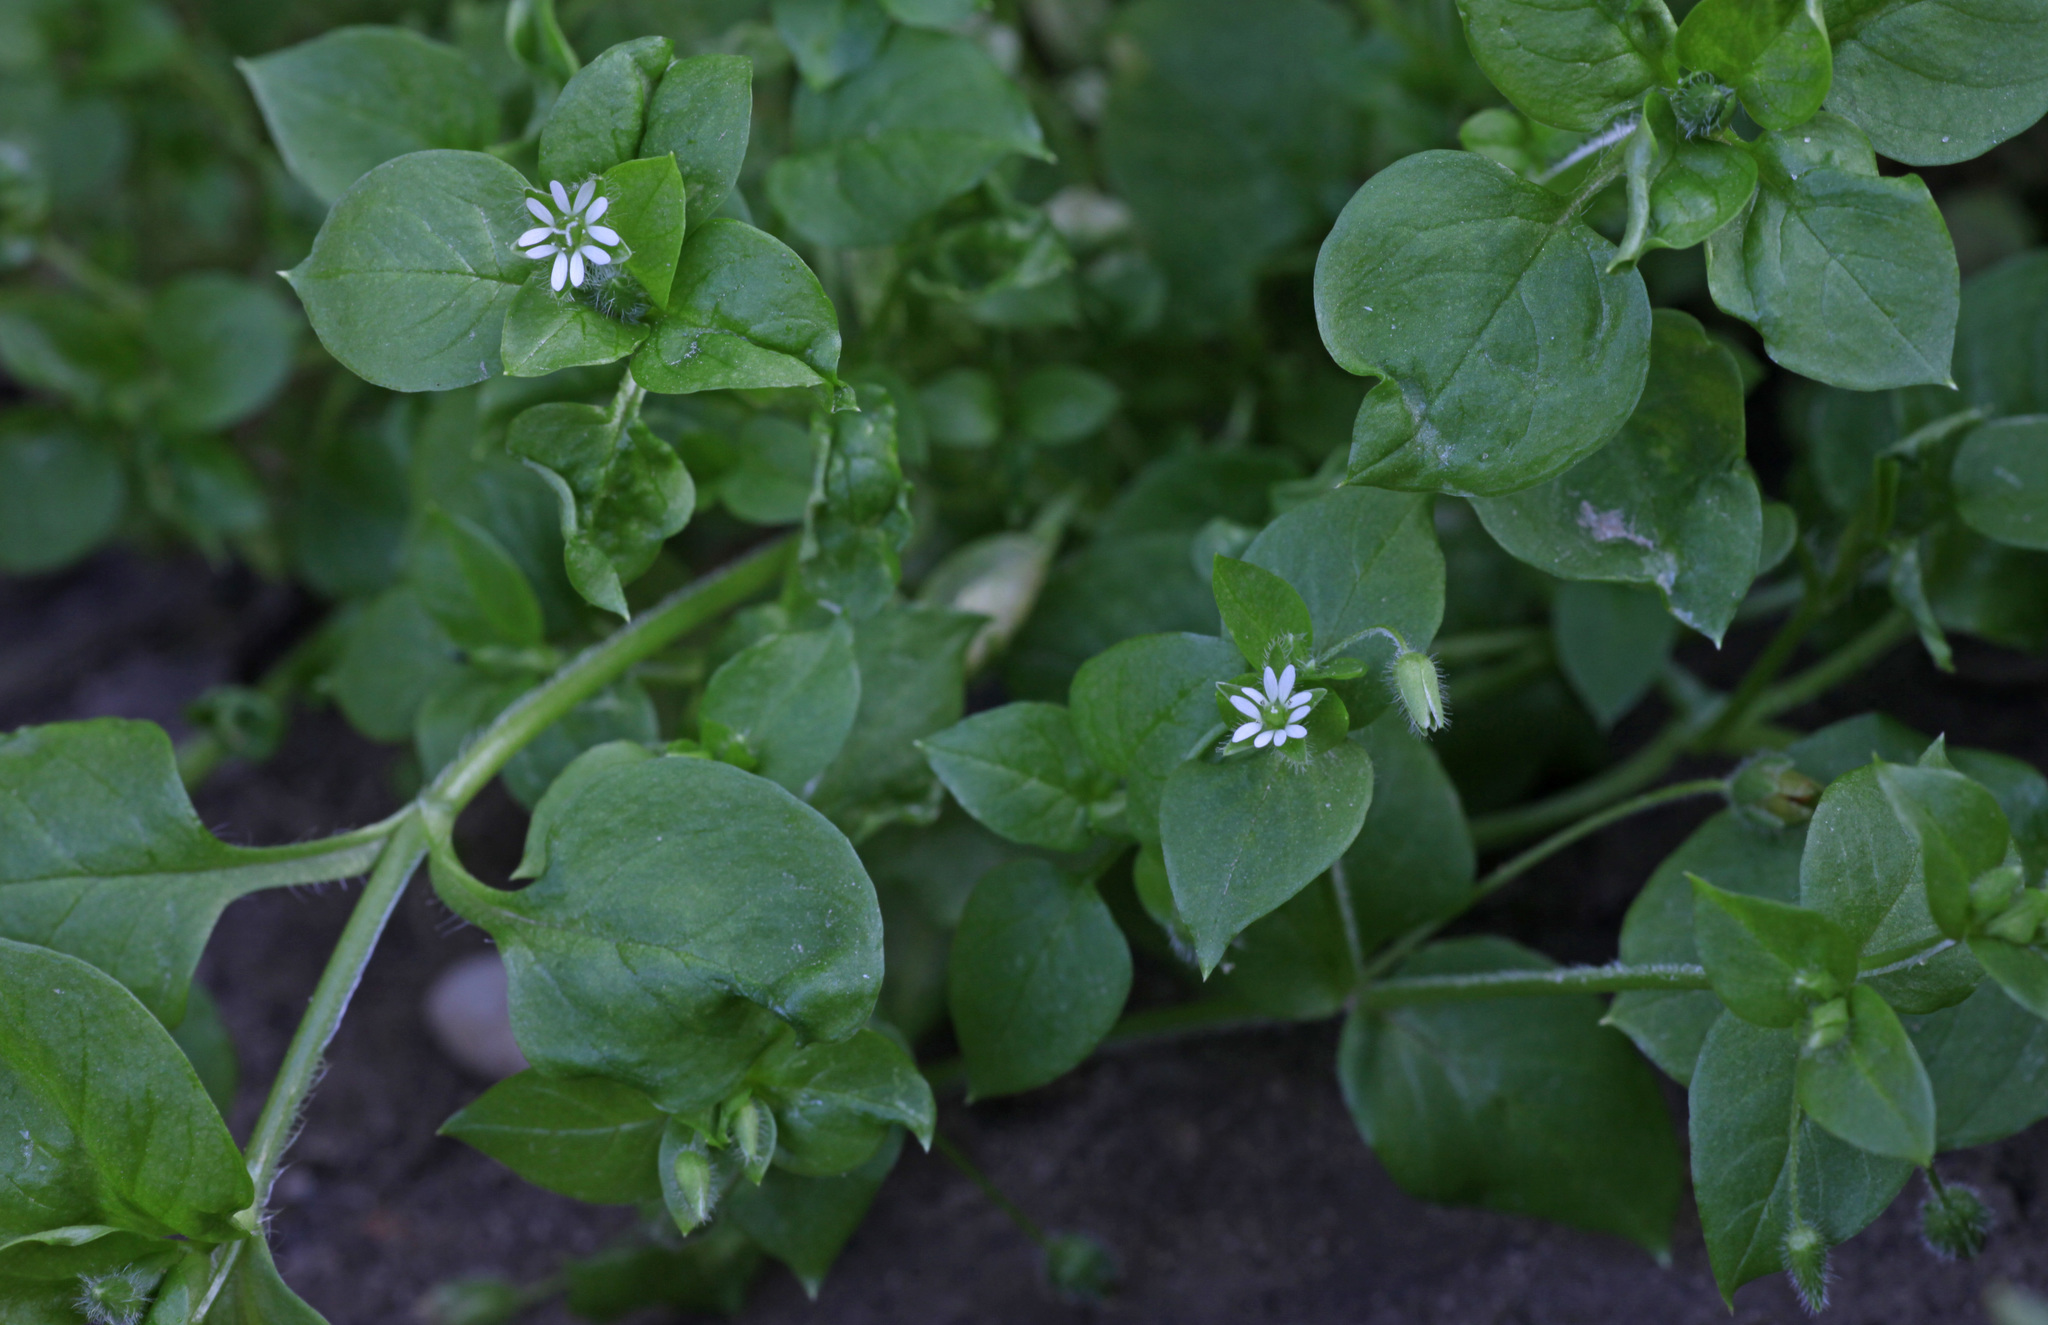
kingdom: Plantae
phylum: Tracheophyta
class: Magnoliopsida
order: Caryophyllales
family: Caryophyllaceae
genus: Stellaria
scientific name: Stellaria media
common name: Common chickweed
